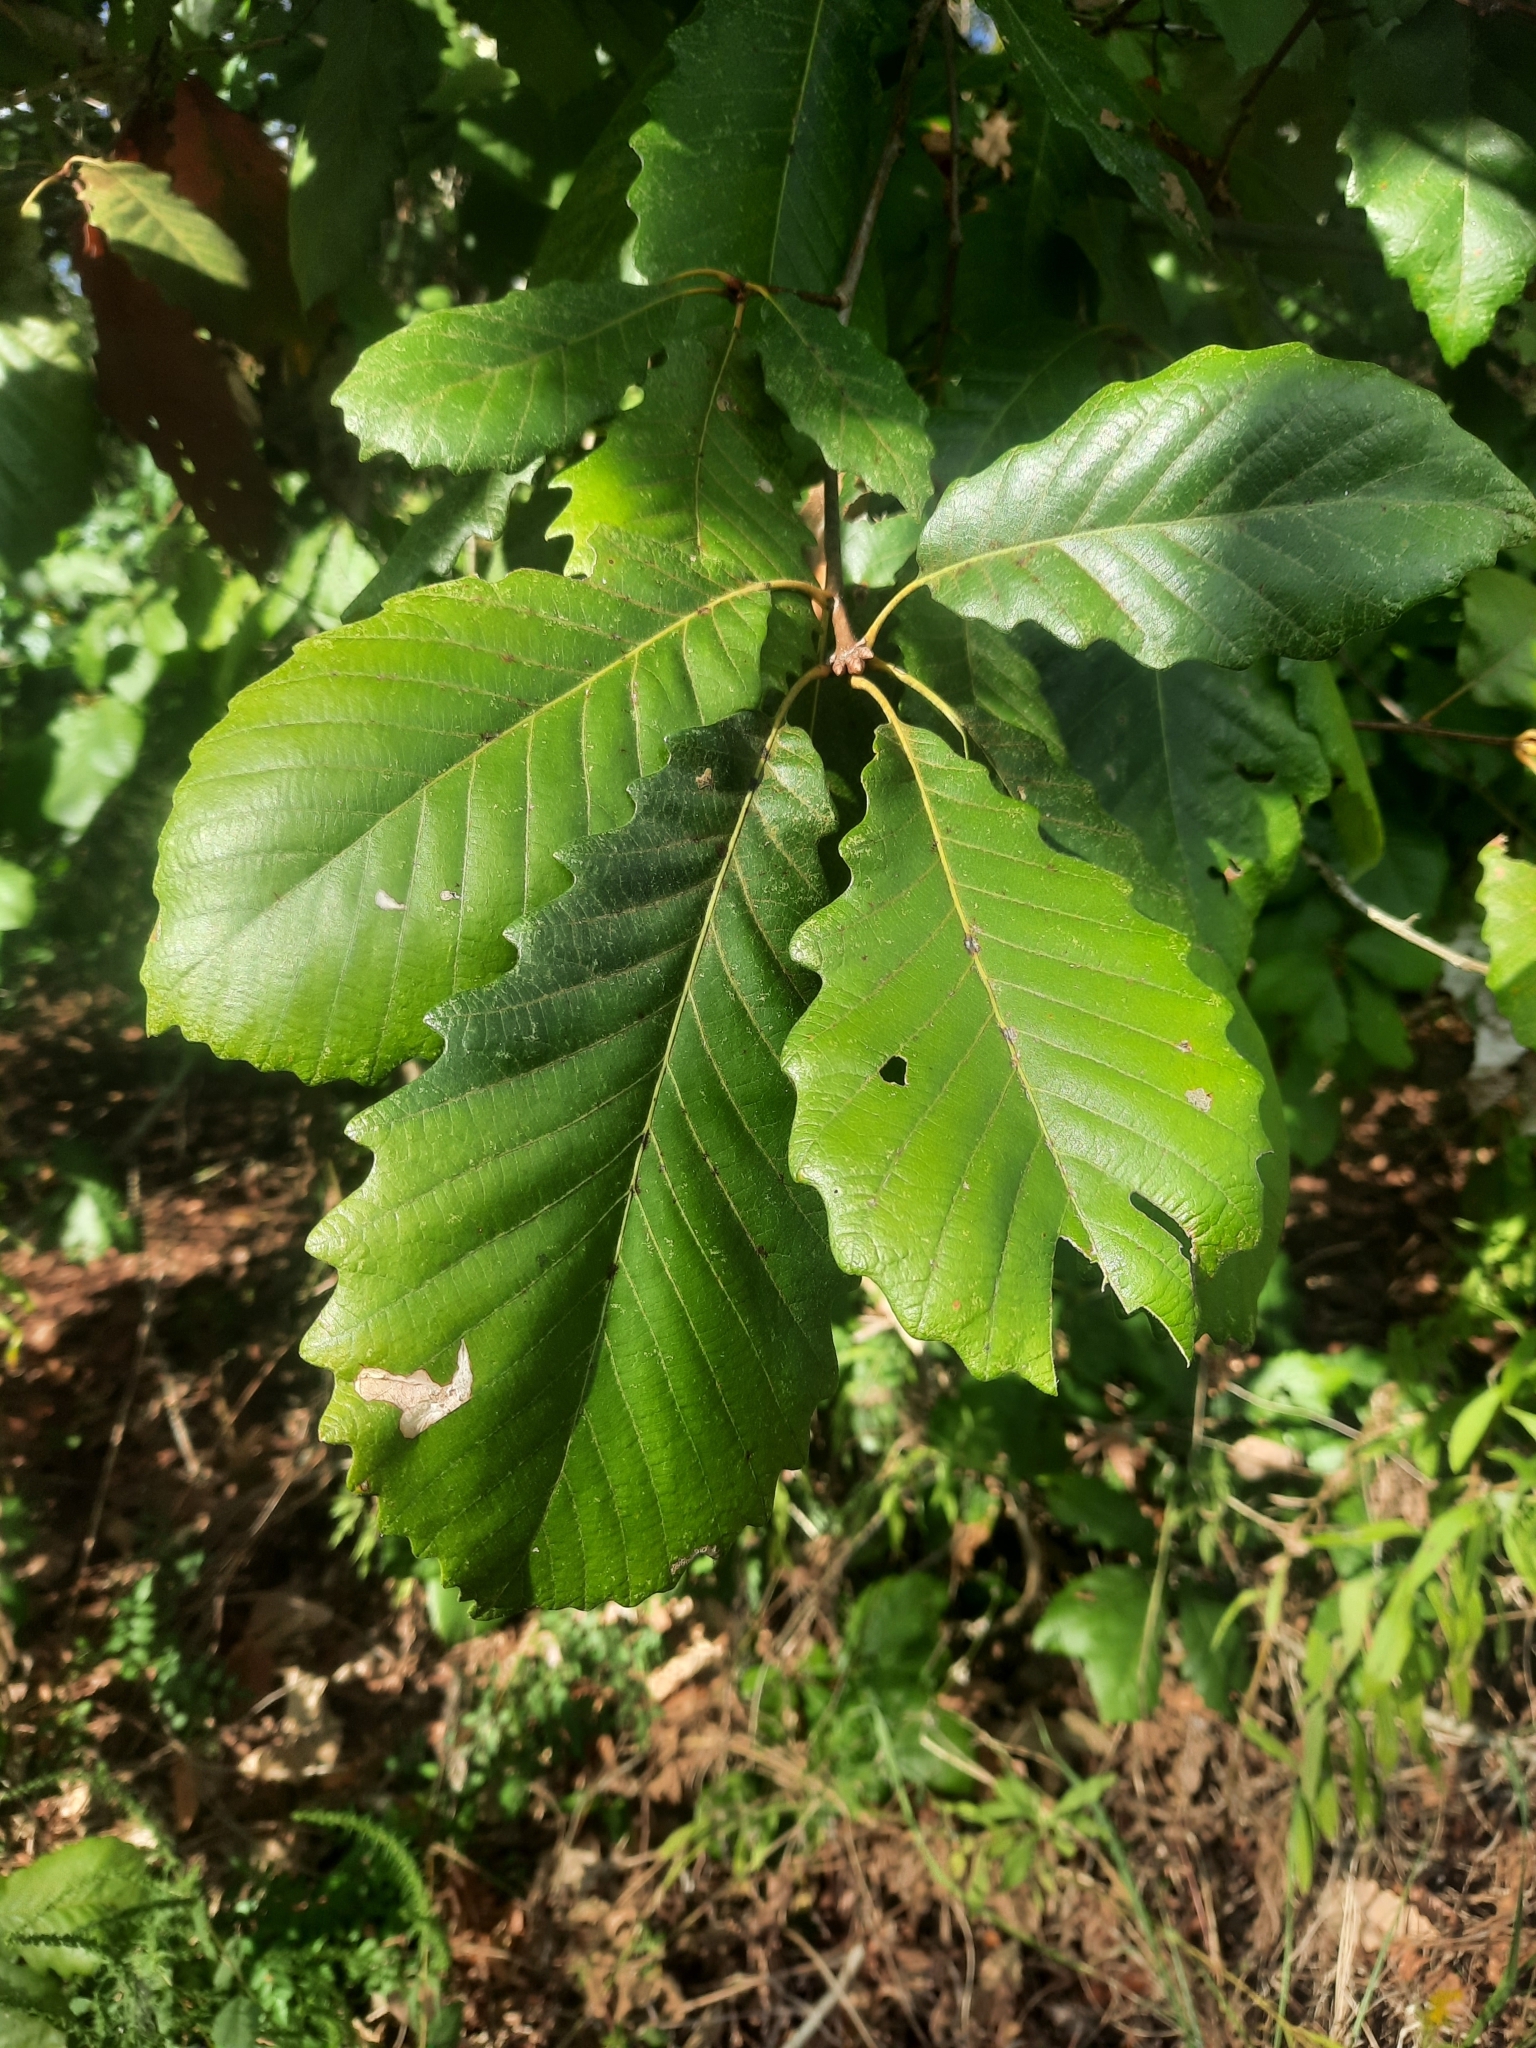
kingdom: Plantae
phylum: Tracheophyta
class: Magnoliopsida
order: Fagales
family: Fagaceae
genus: Quercus
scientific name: Quercus michauxii
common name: Swamp chestnut oak
